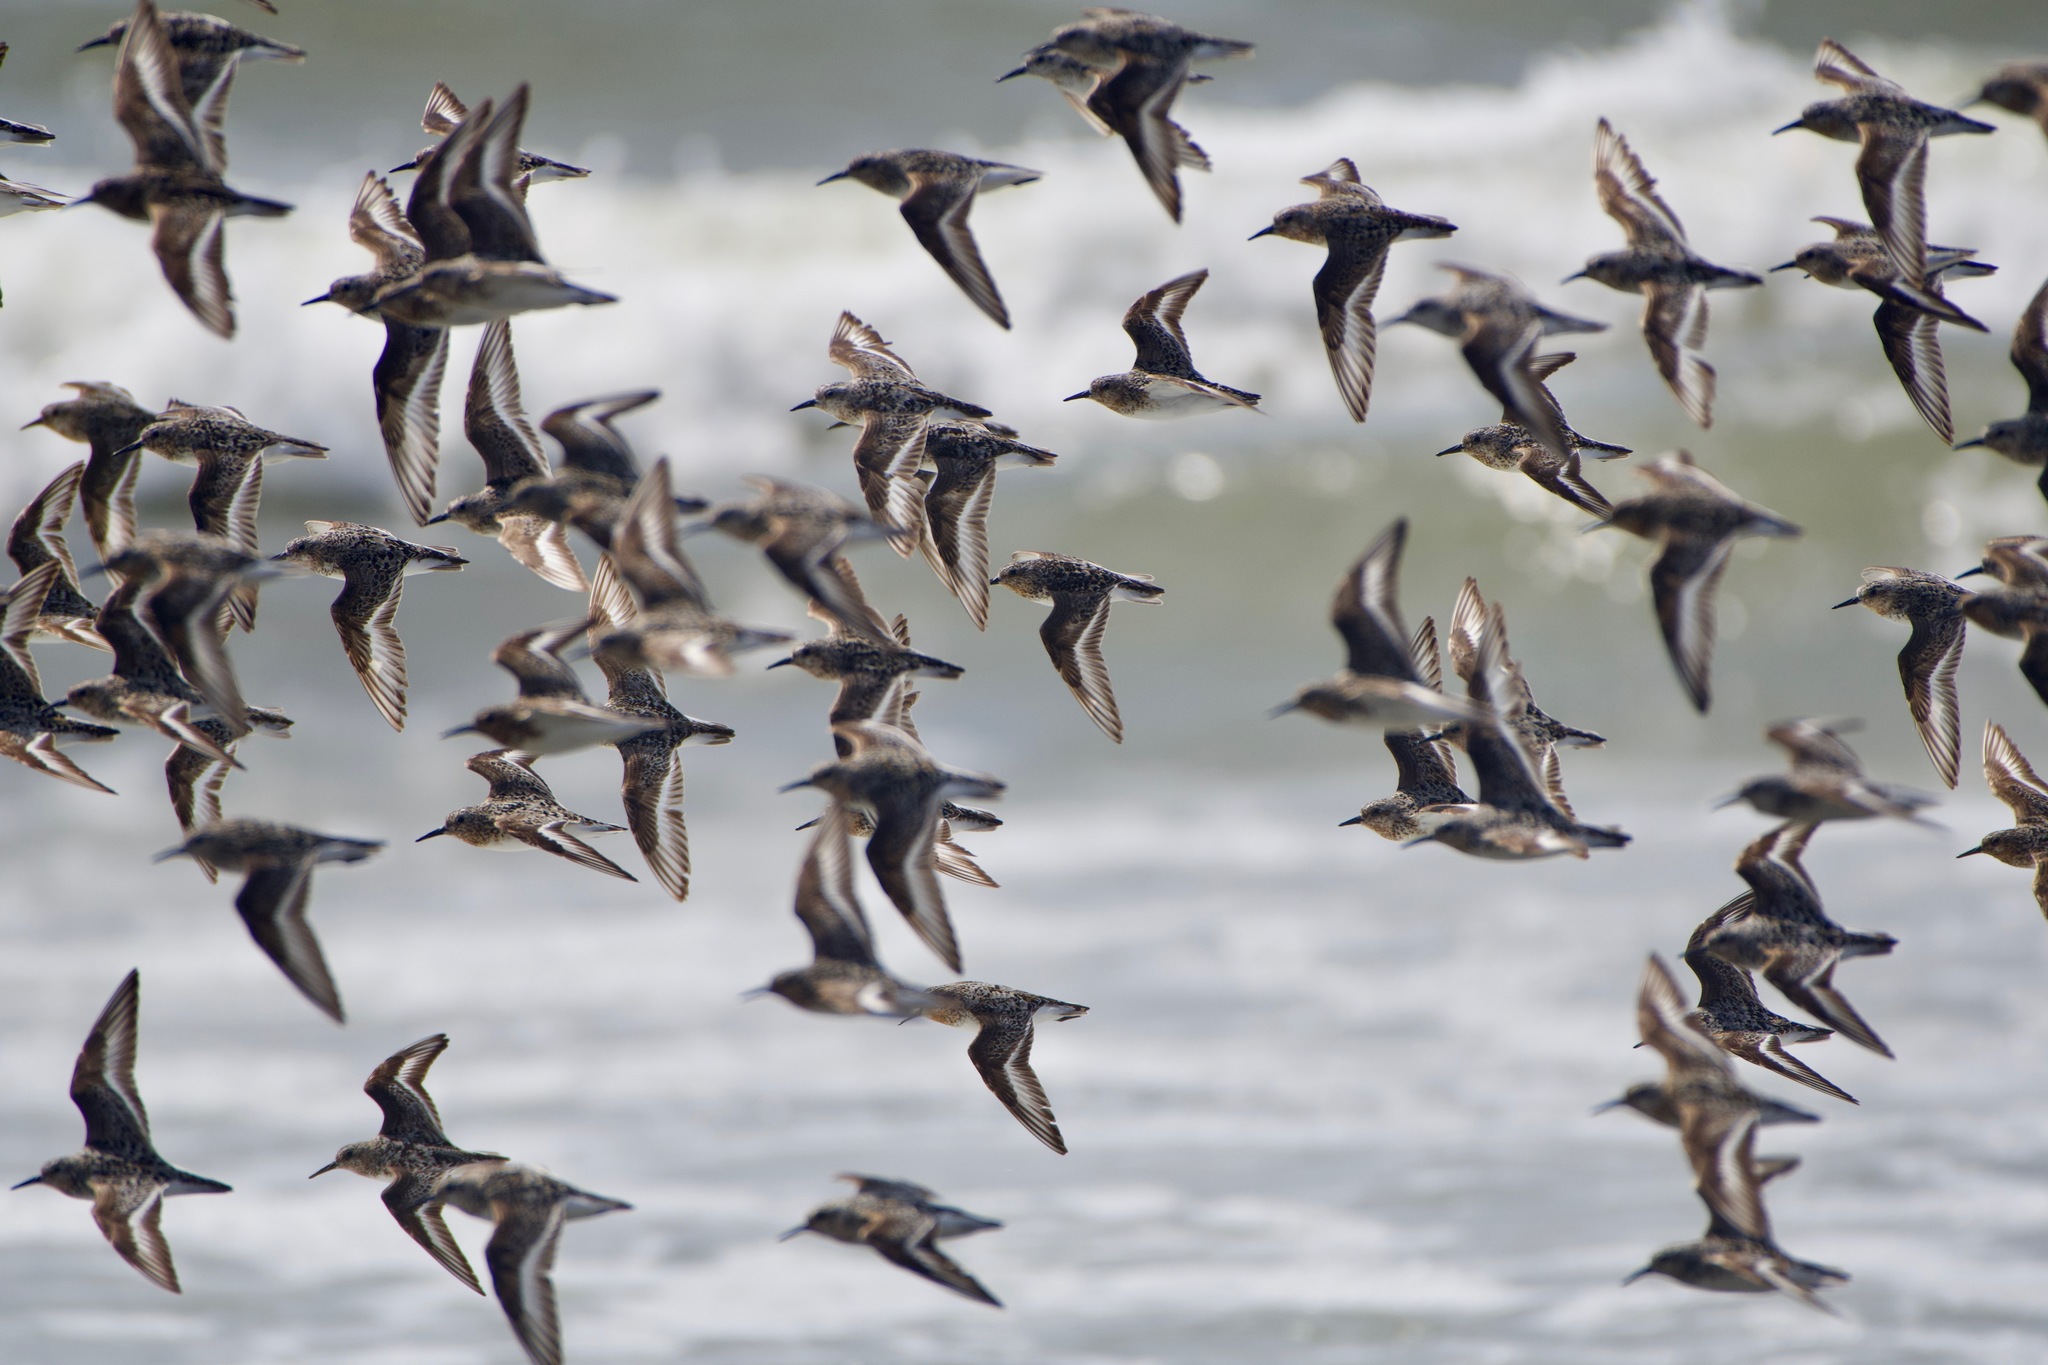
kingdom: Animalia
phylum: Chordata
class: Aves
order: Charadriiformes
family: Scolopacidae
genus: Calidris
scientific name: Calidris alba
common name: Sanderling
